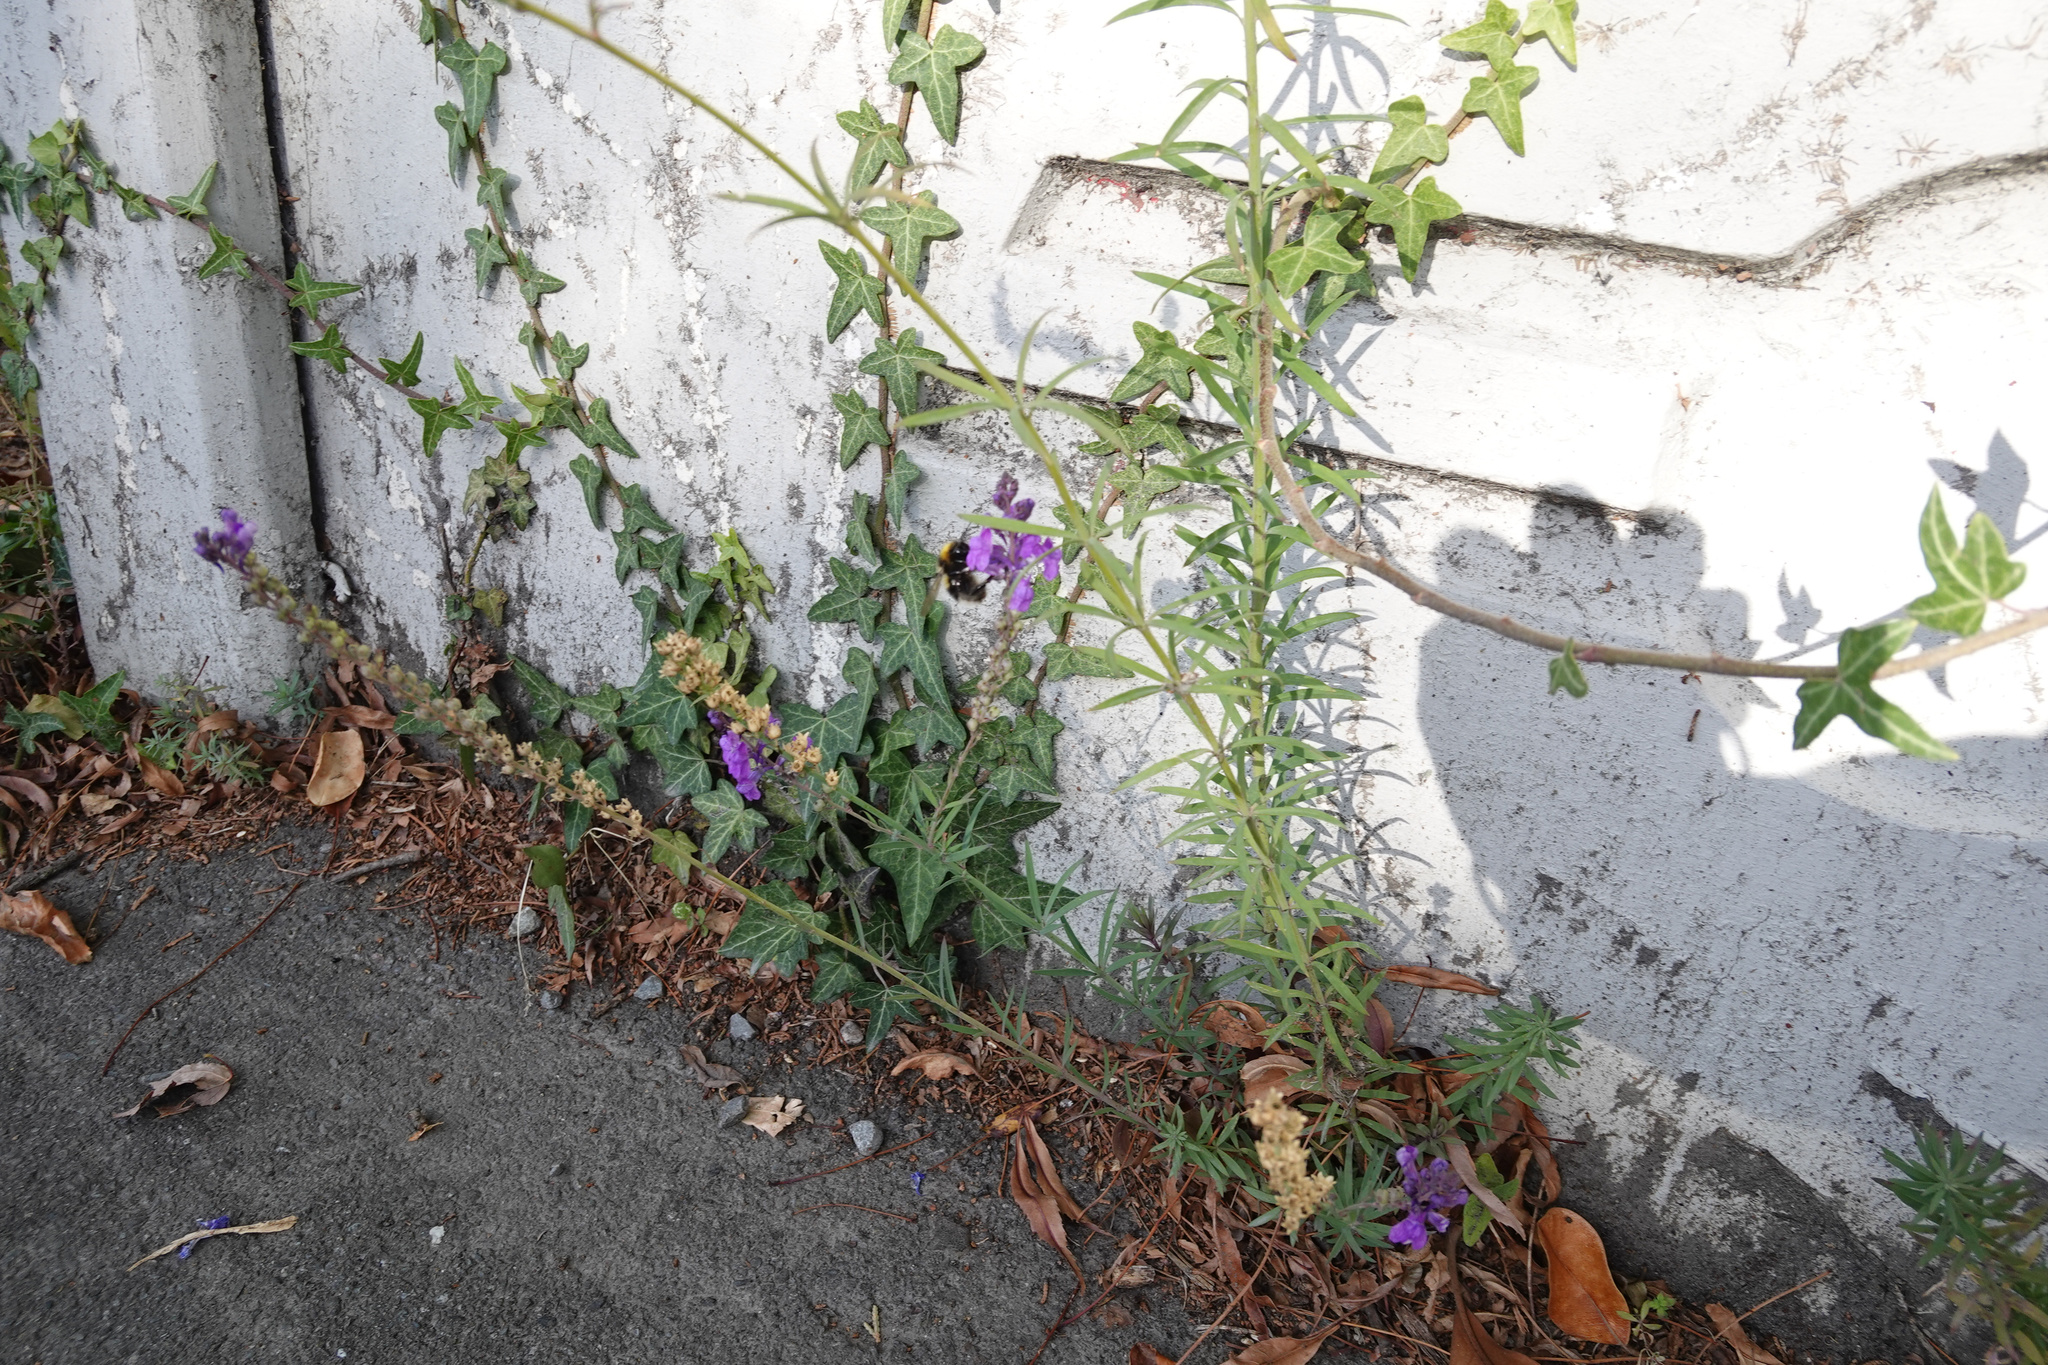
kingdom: Plantae
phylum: Tracheophyta
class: Magnoliopsida
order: Lamiales
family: Plantaginaceae
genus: Linaria
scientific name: Linaria purpurea
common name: Purple toadflax
